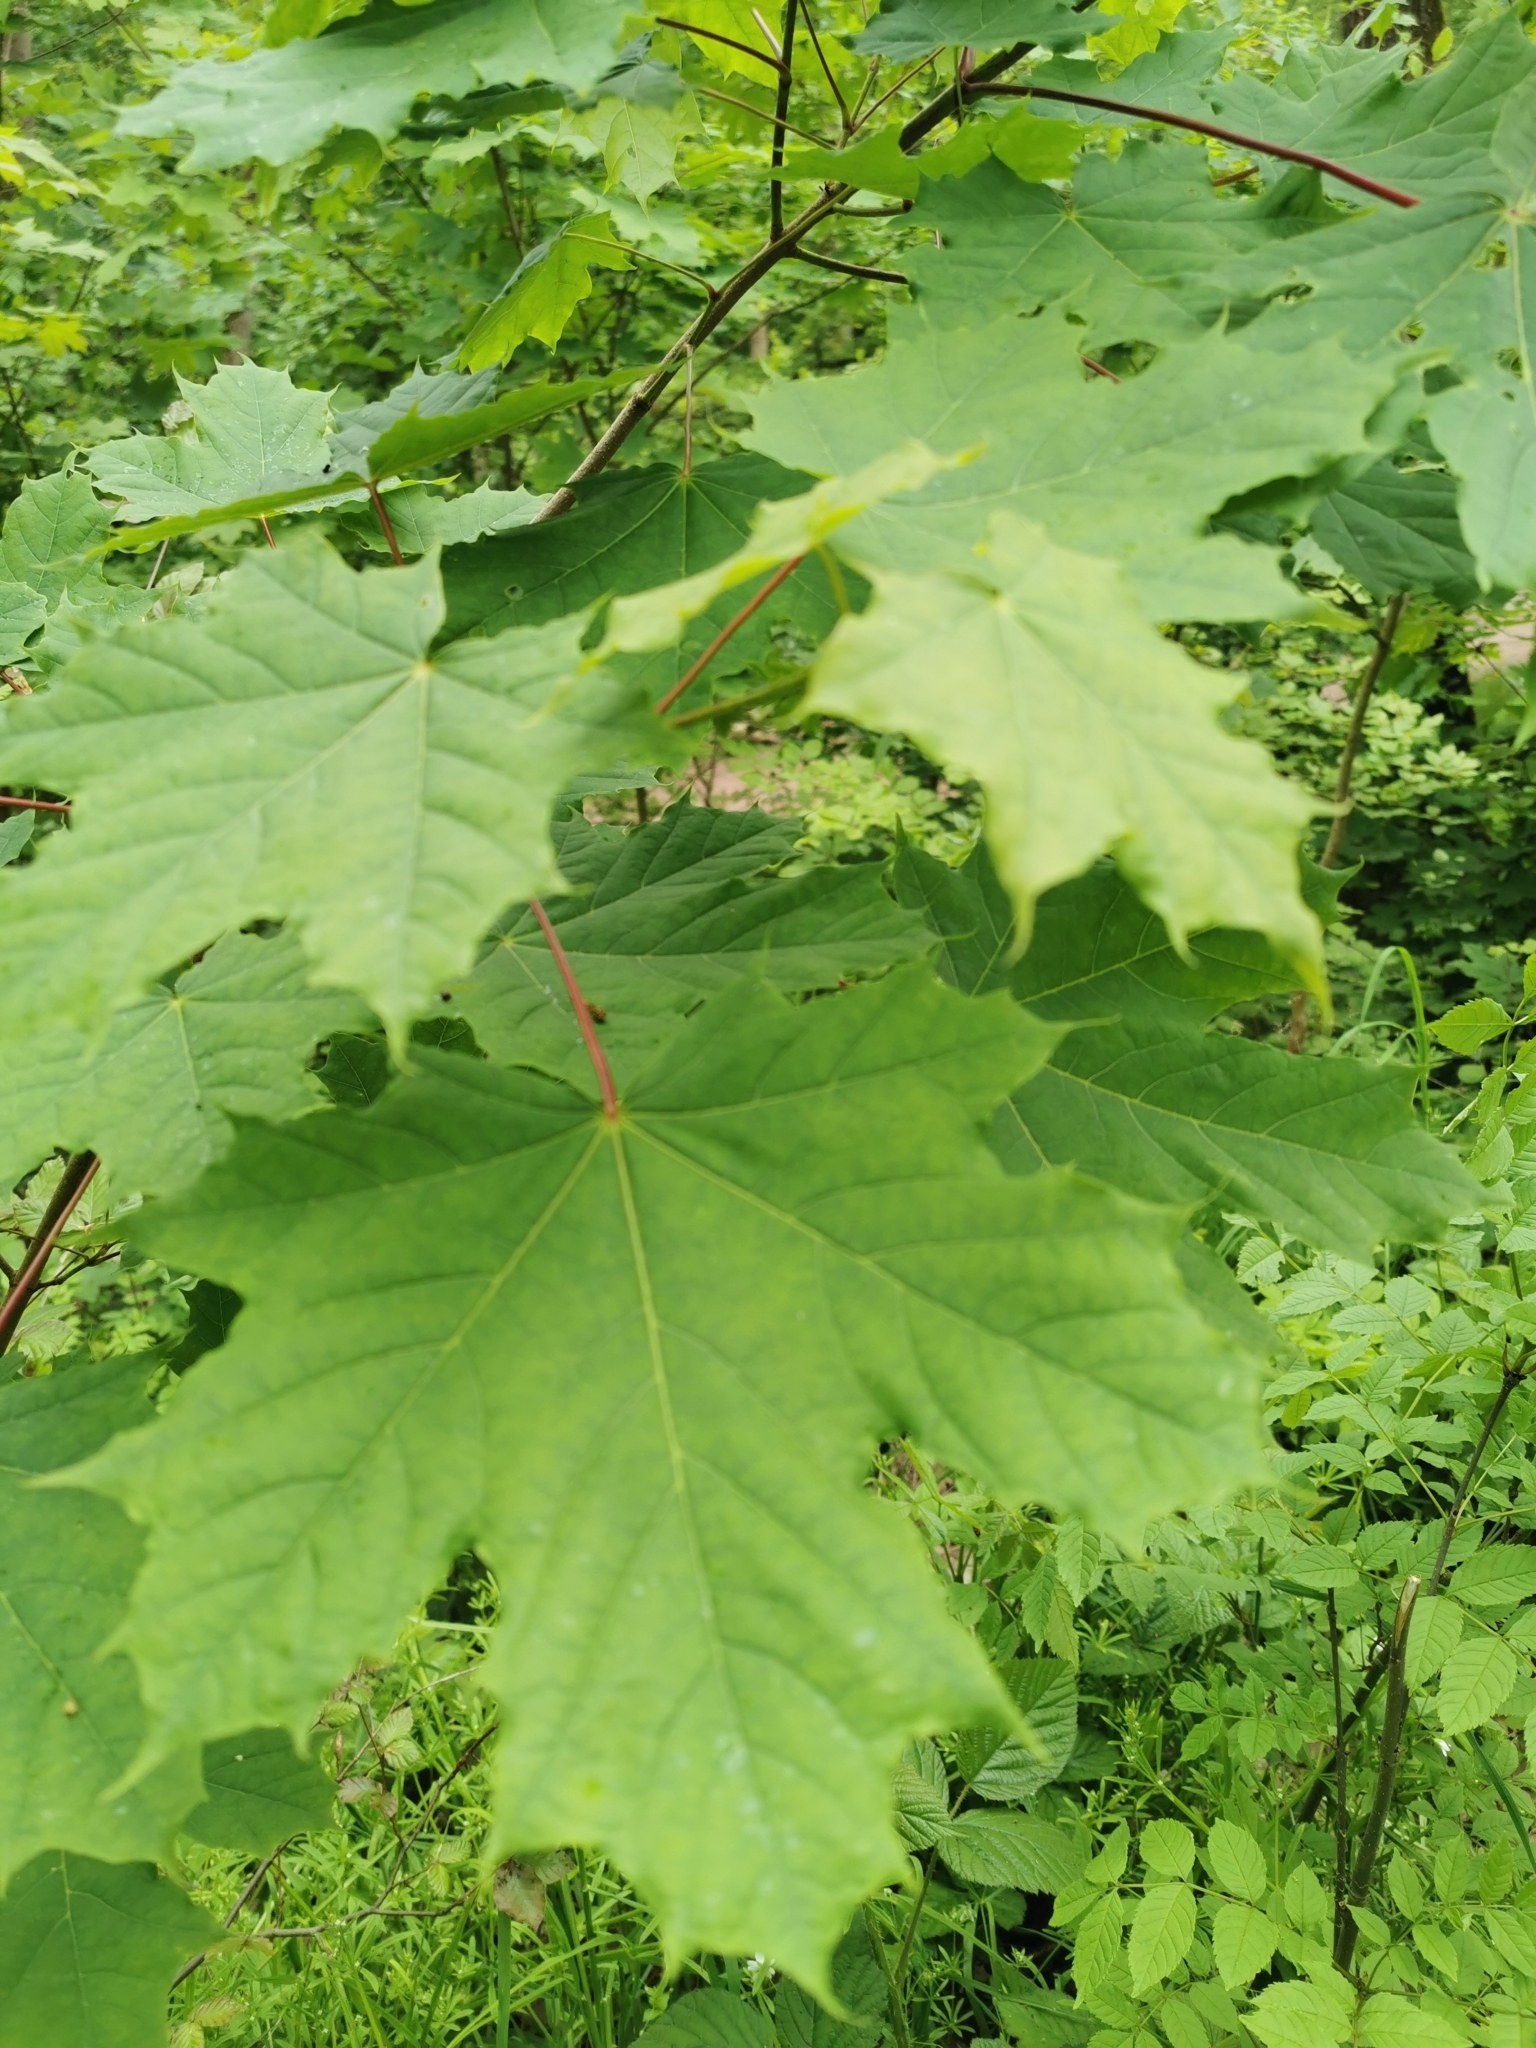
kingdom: Plantae
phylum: Tracheophyta
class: Magnoliopsida
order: Sapindales
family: Sapindaceae
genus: Acer
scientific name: Acer platanoides
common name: Norway maple
